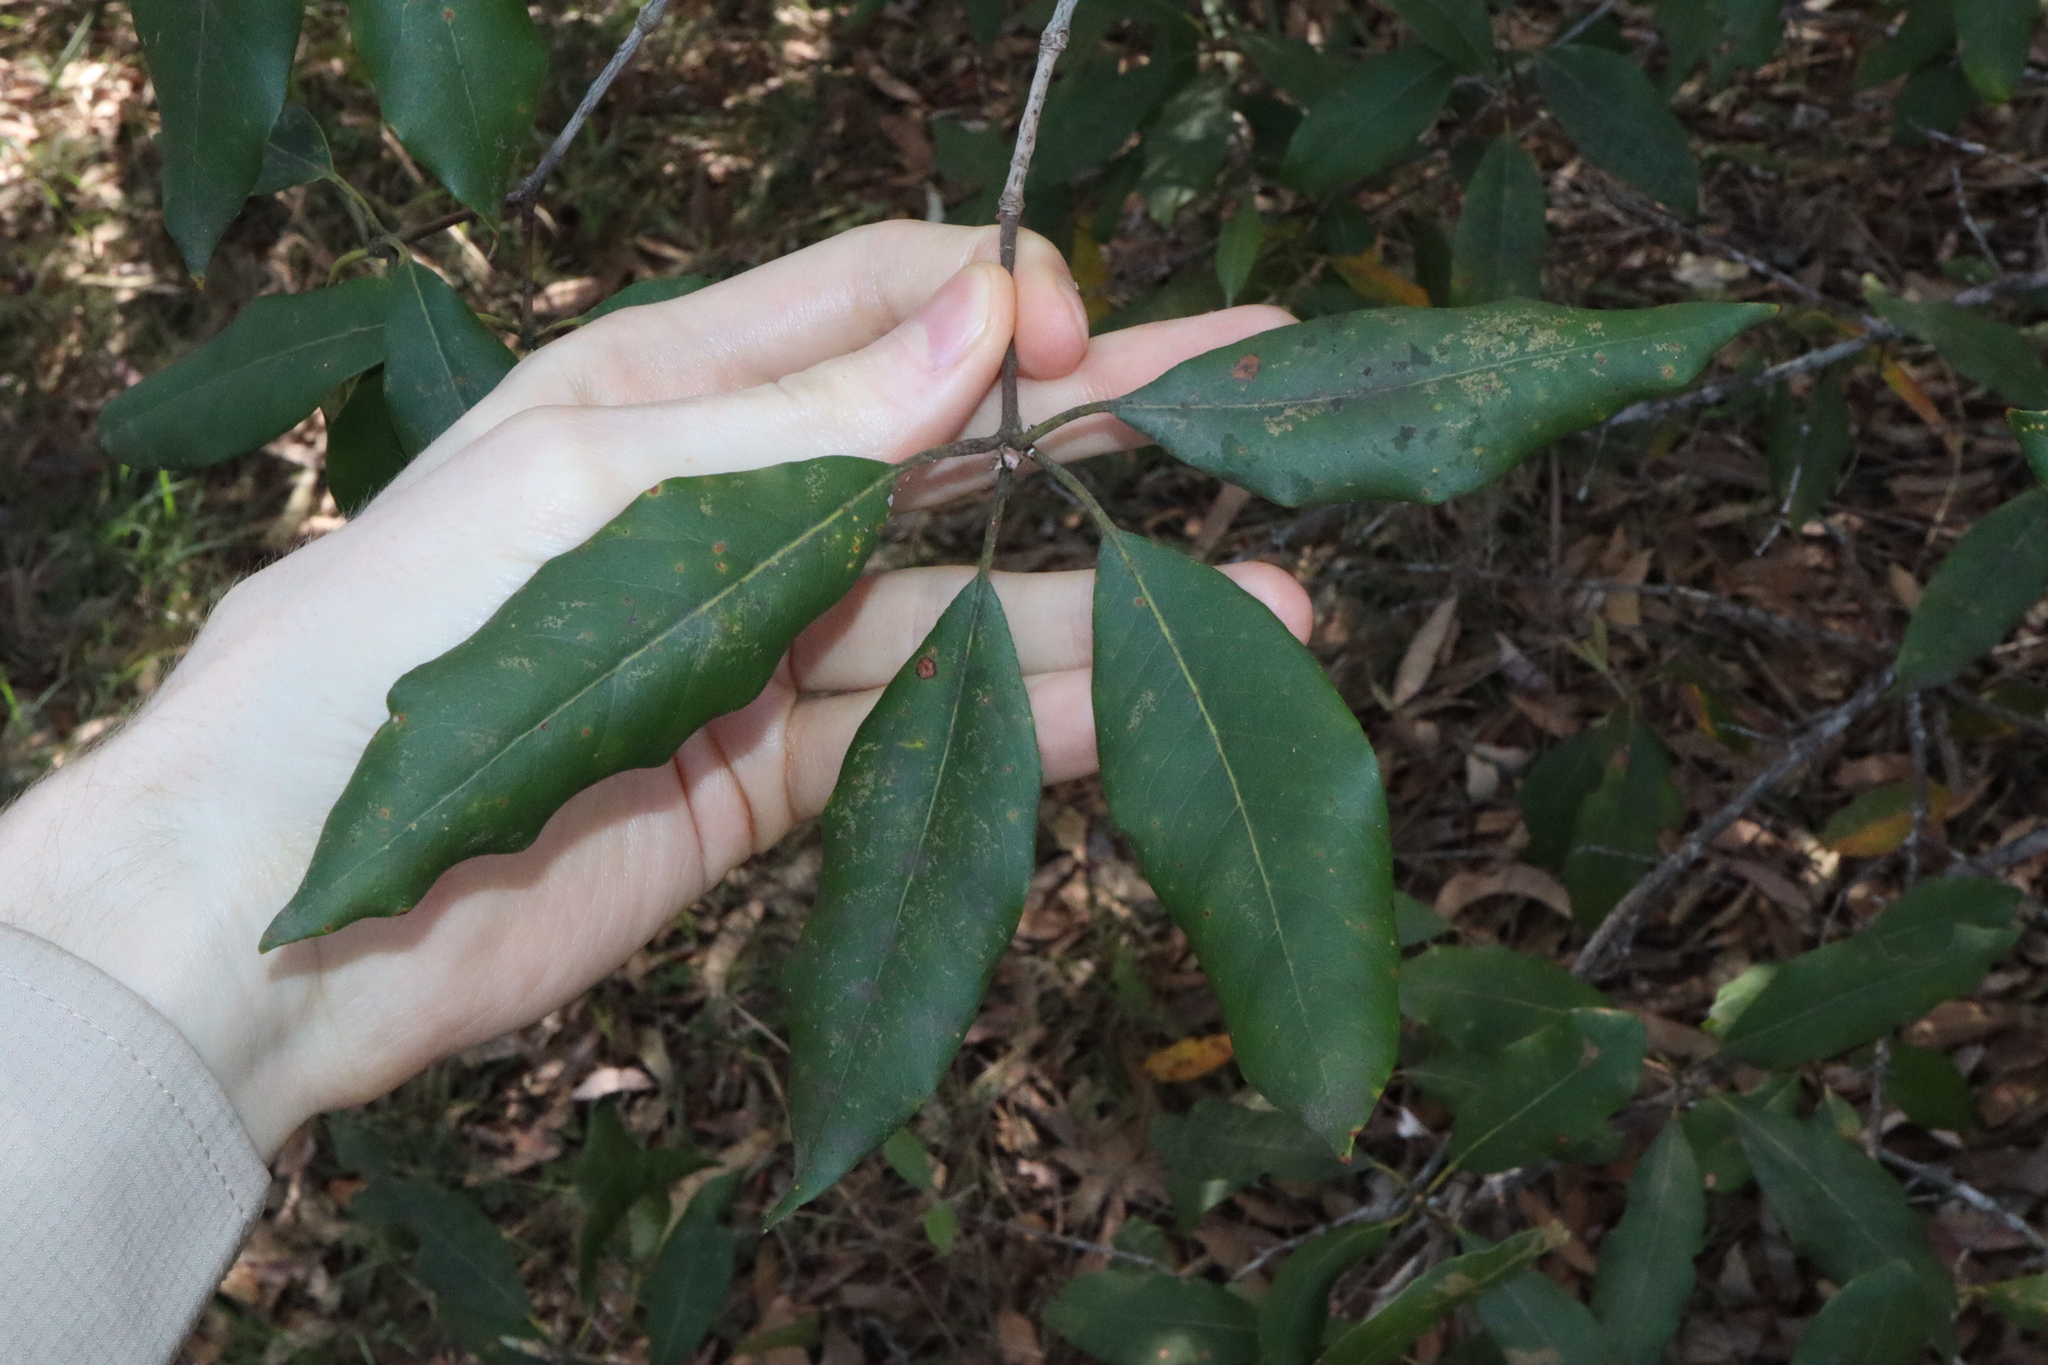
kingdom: Plantae
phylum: Tracheophyta
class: Magnoliopsida
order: Myrtales
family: Myrtaceae
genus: Syncarpia
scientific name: Syncarpia glomulifera
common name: Turpentine tree
